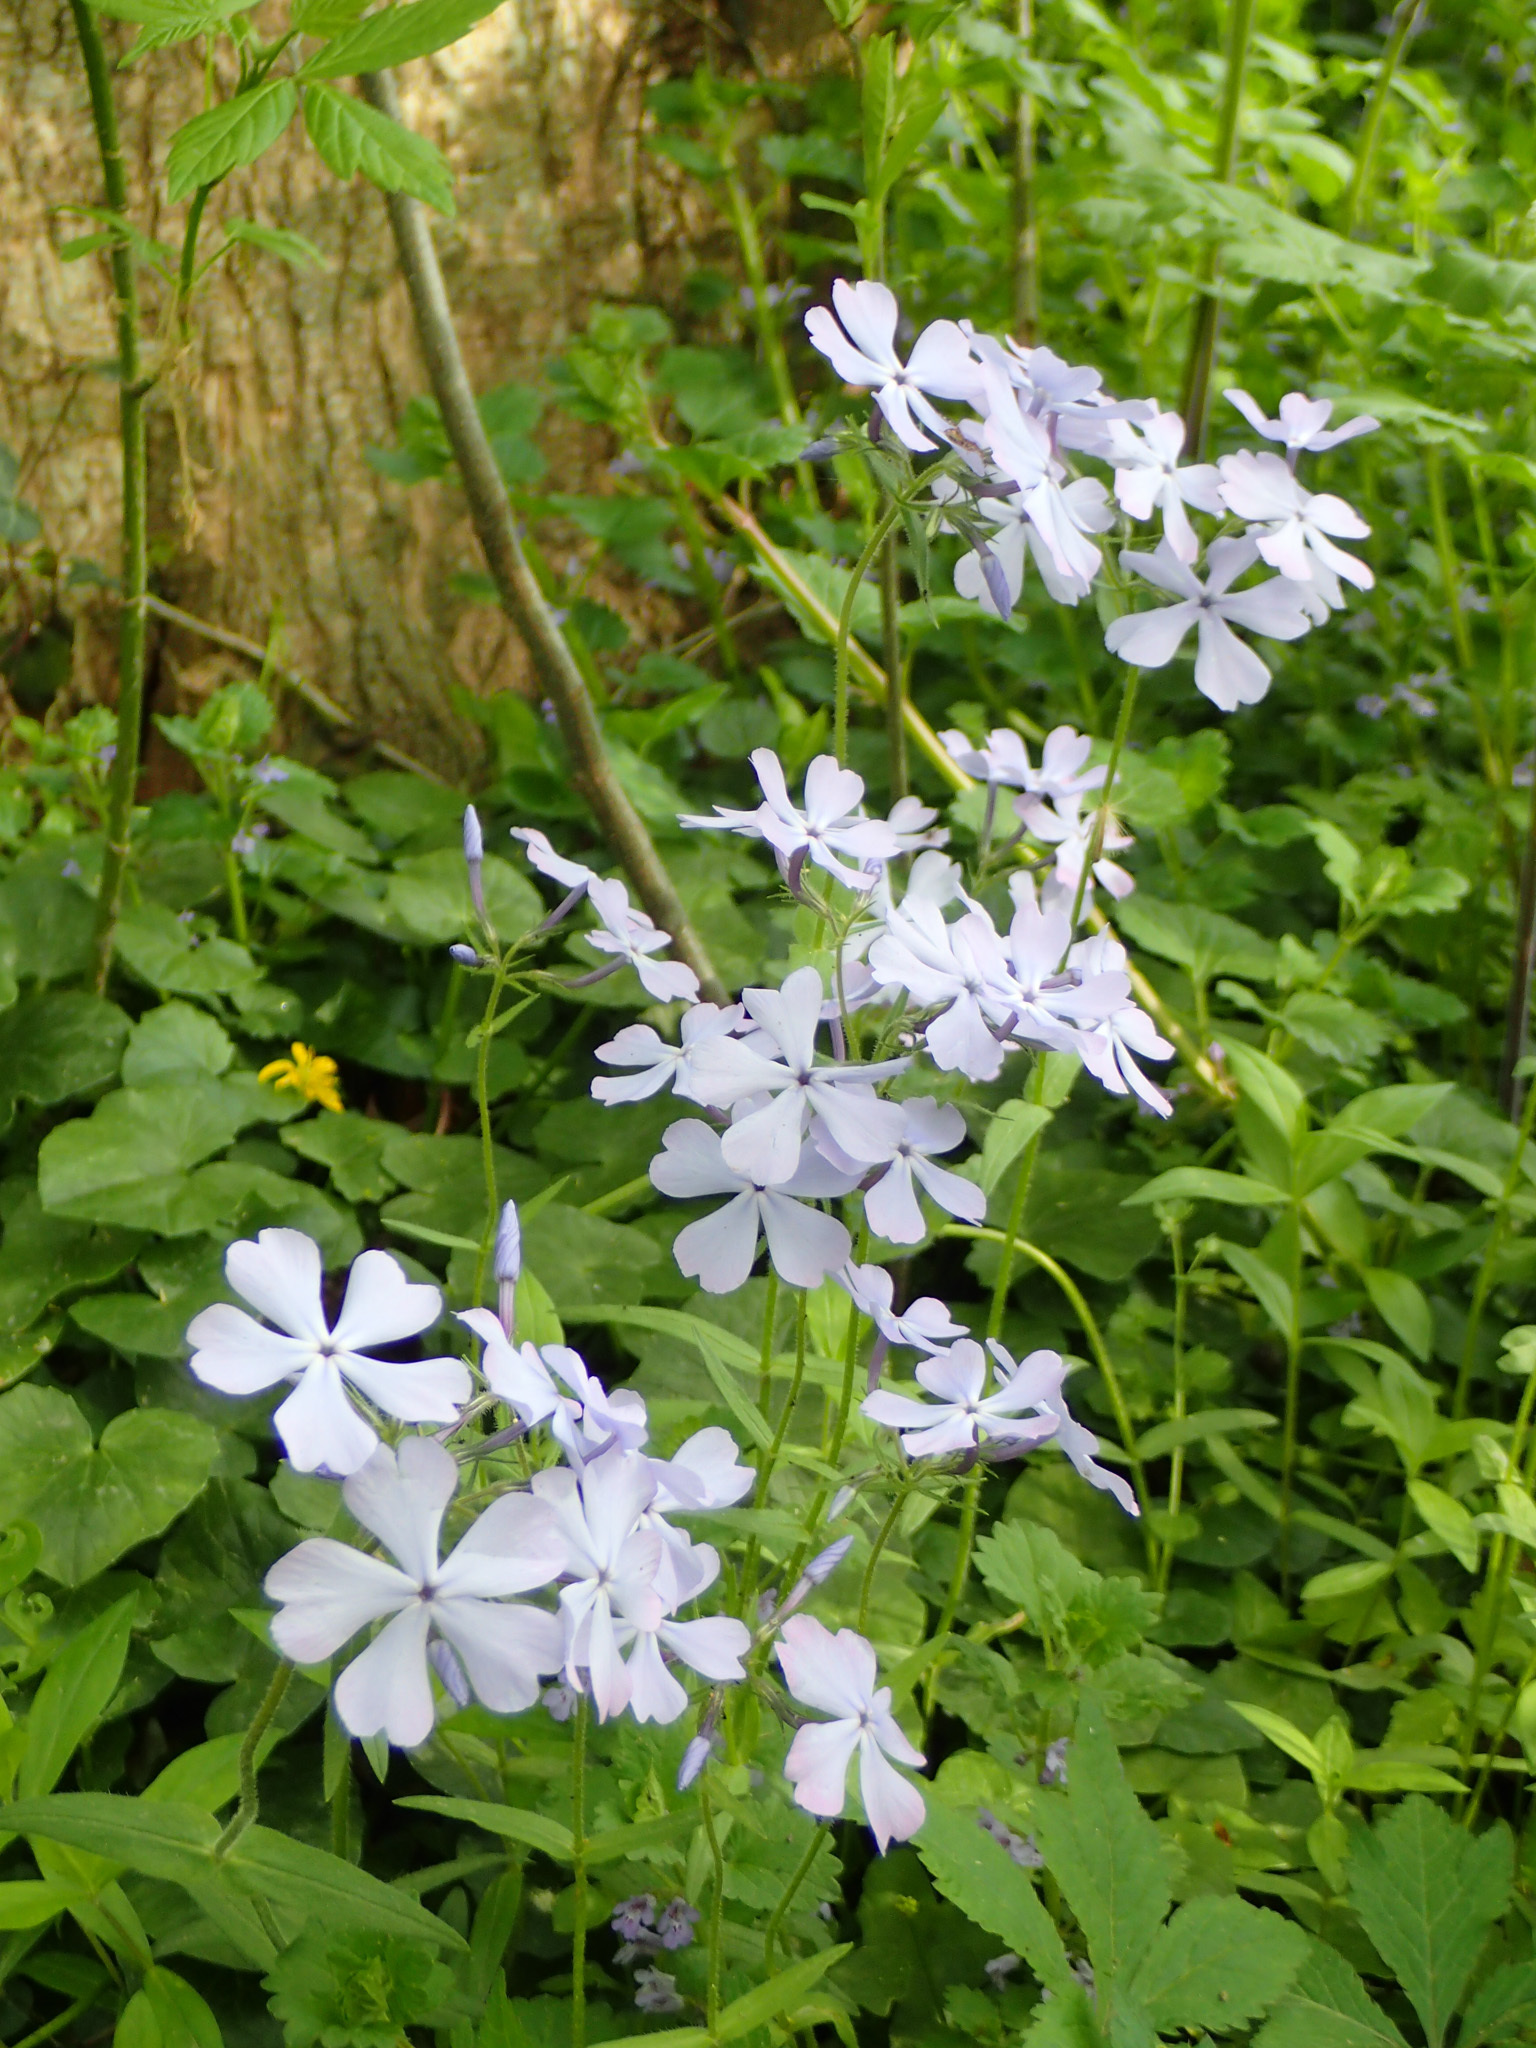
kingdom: Plantae
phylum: Tracheophyta
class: Magnoliopsida
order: Ericales
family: Polemoniaceae
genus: Phlox
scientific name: Phlox divaricata
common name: Blue phlox
